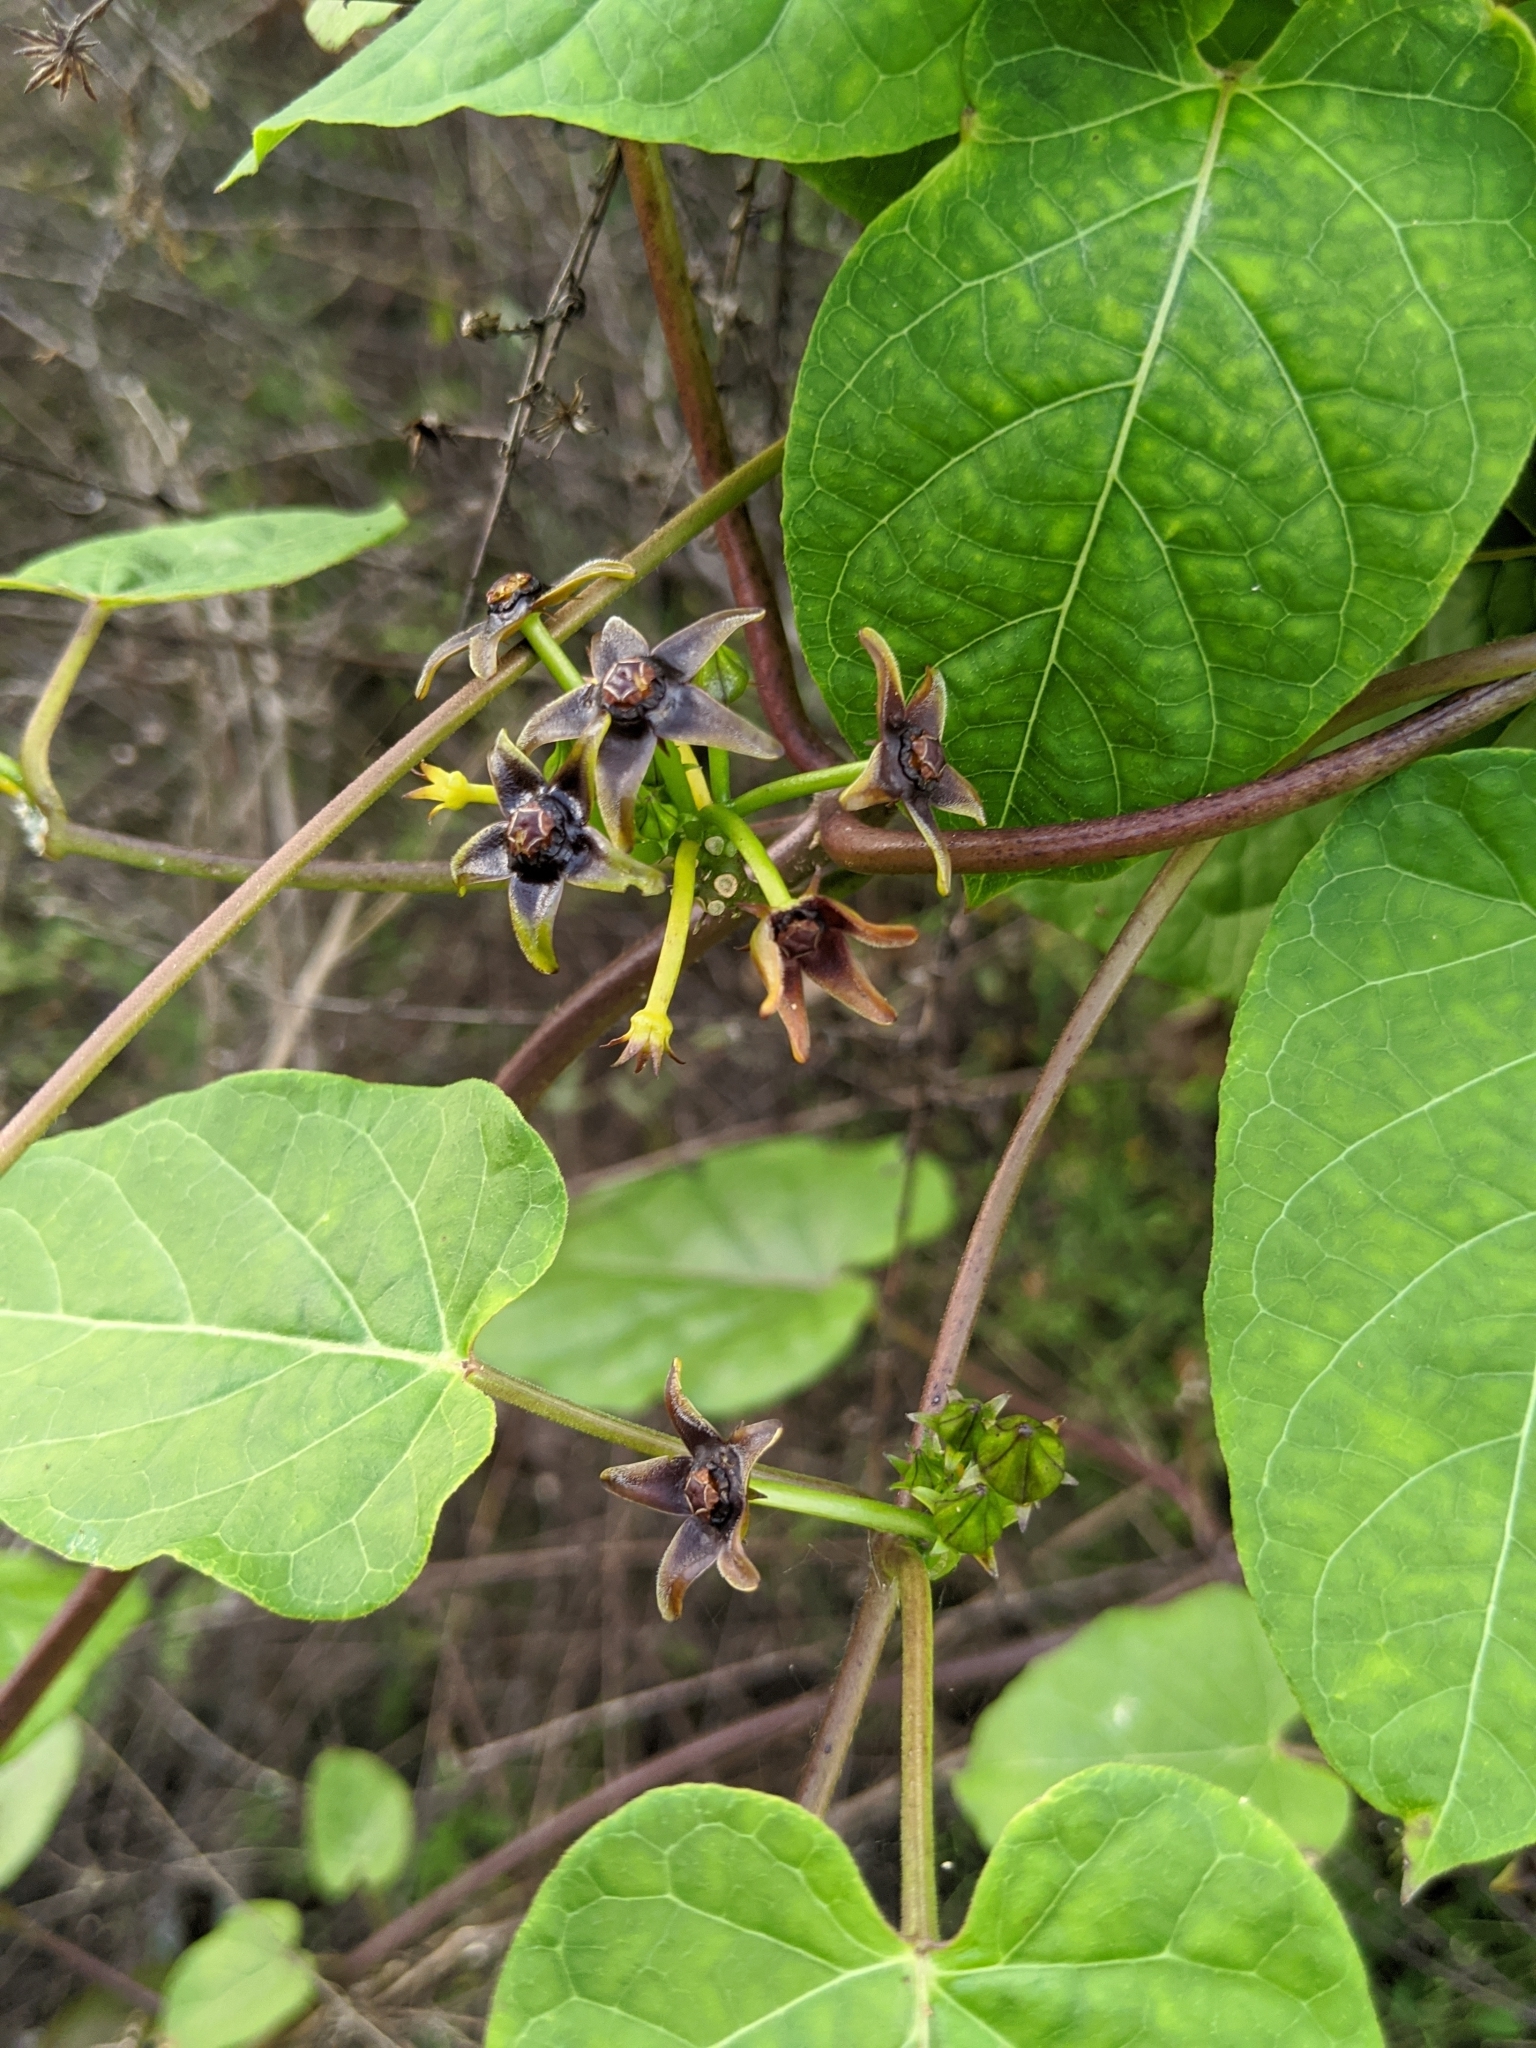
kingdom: Plantae
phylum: Tracheophyta
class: Magnoliopsida
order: Gentianales
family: Apocynaceae
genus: Gonolobus
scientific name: Gonolobus suberosus
